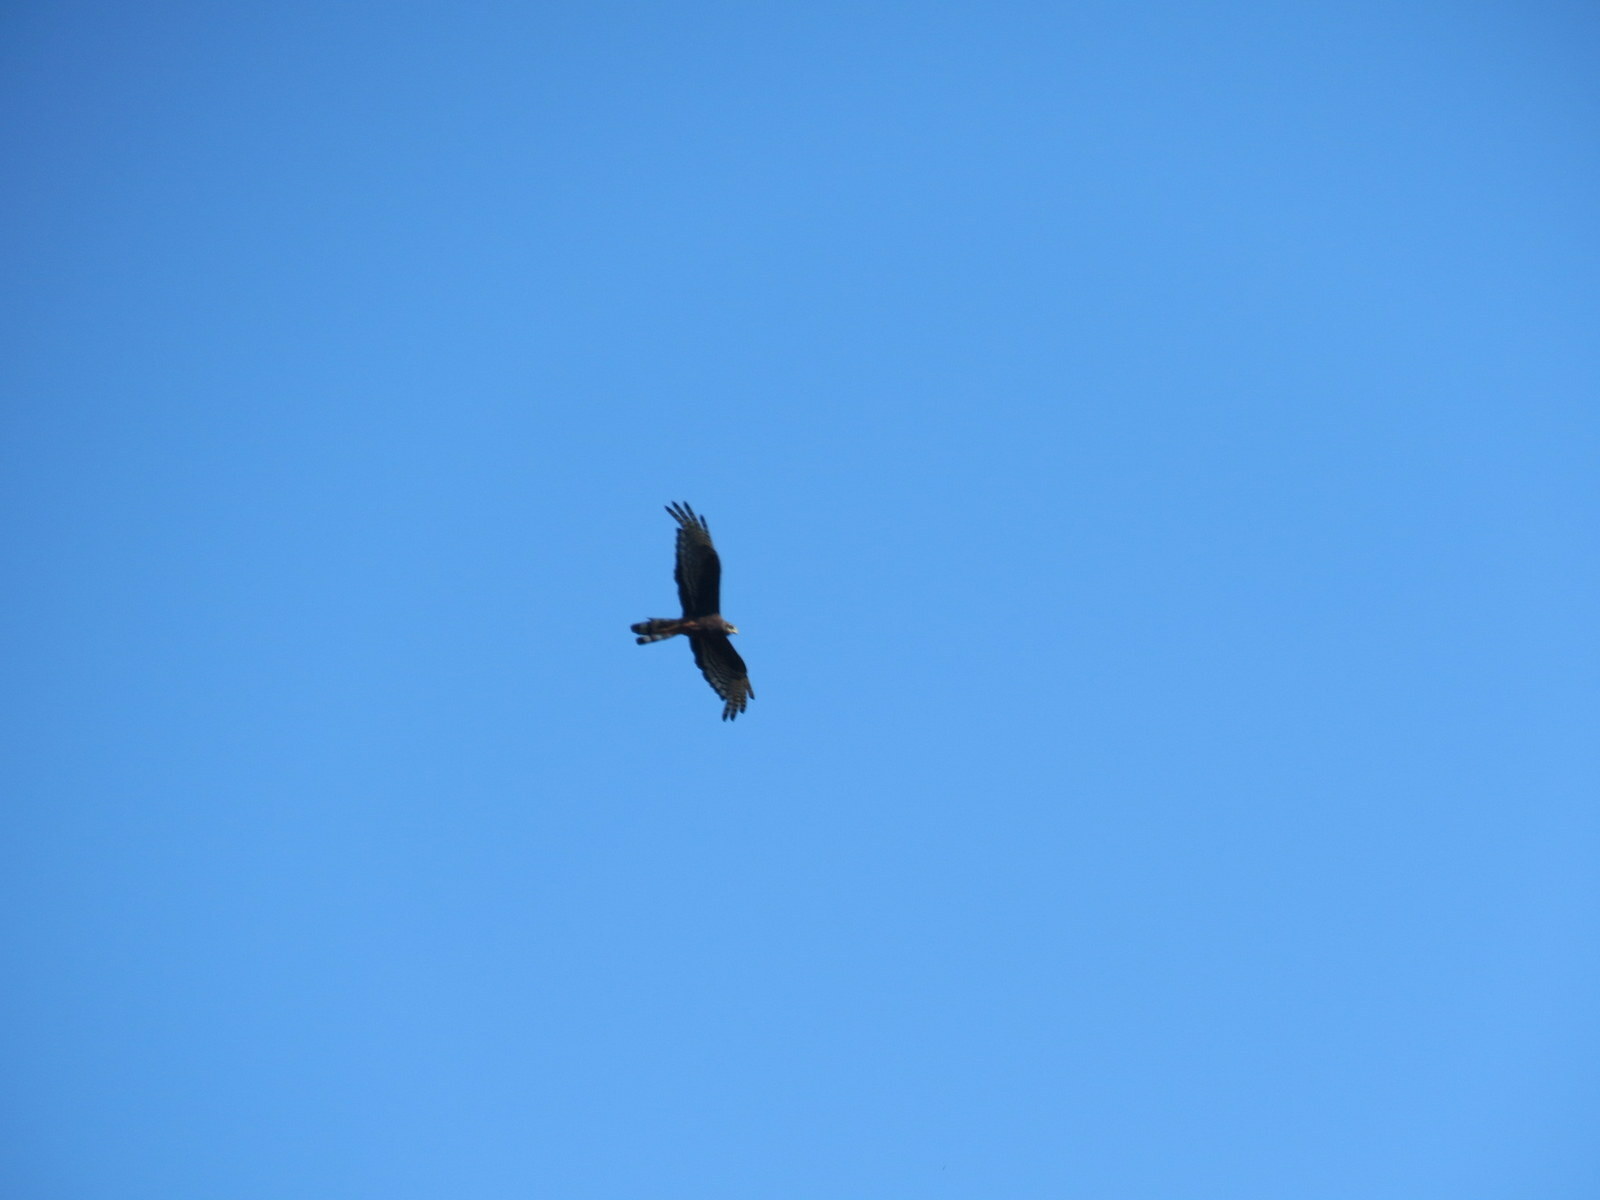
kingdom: Animalia
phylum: Chordata
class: Aves
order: Accipitriformes
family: Accipitridae
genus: Circus
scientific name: Circus buffoni
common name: Long-winged harrier
